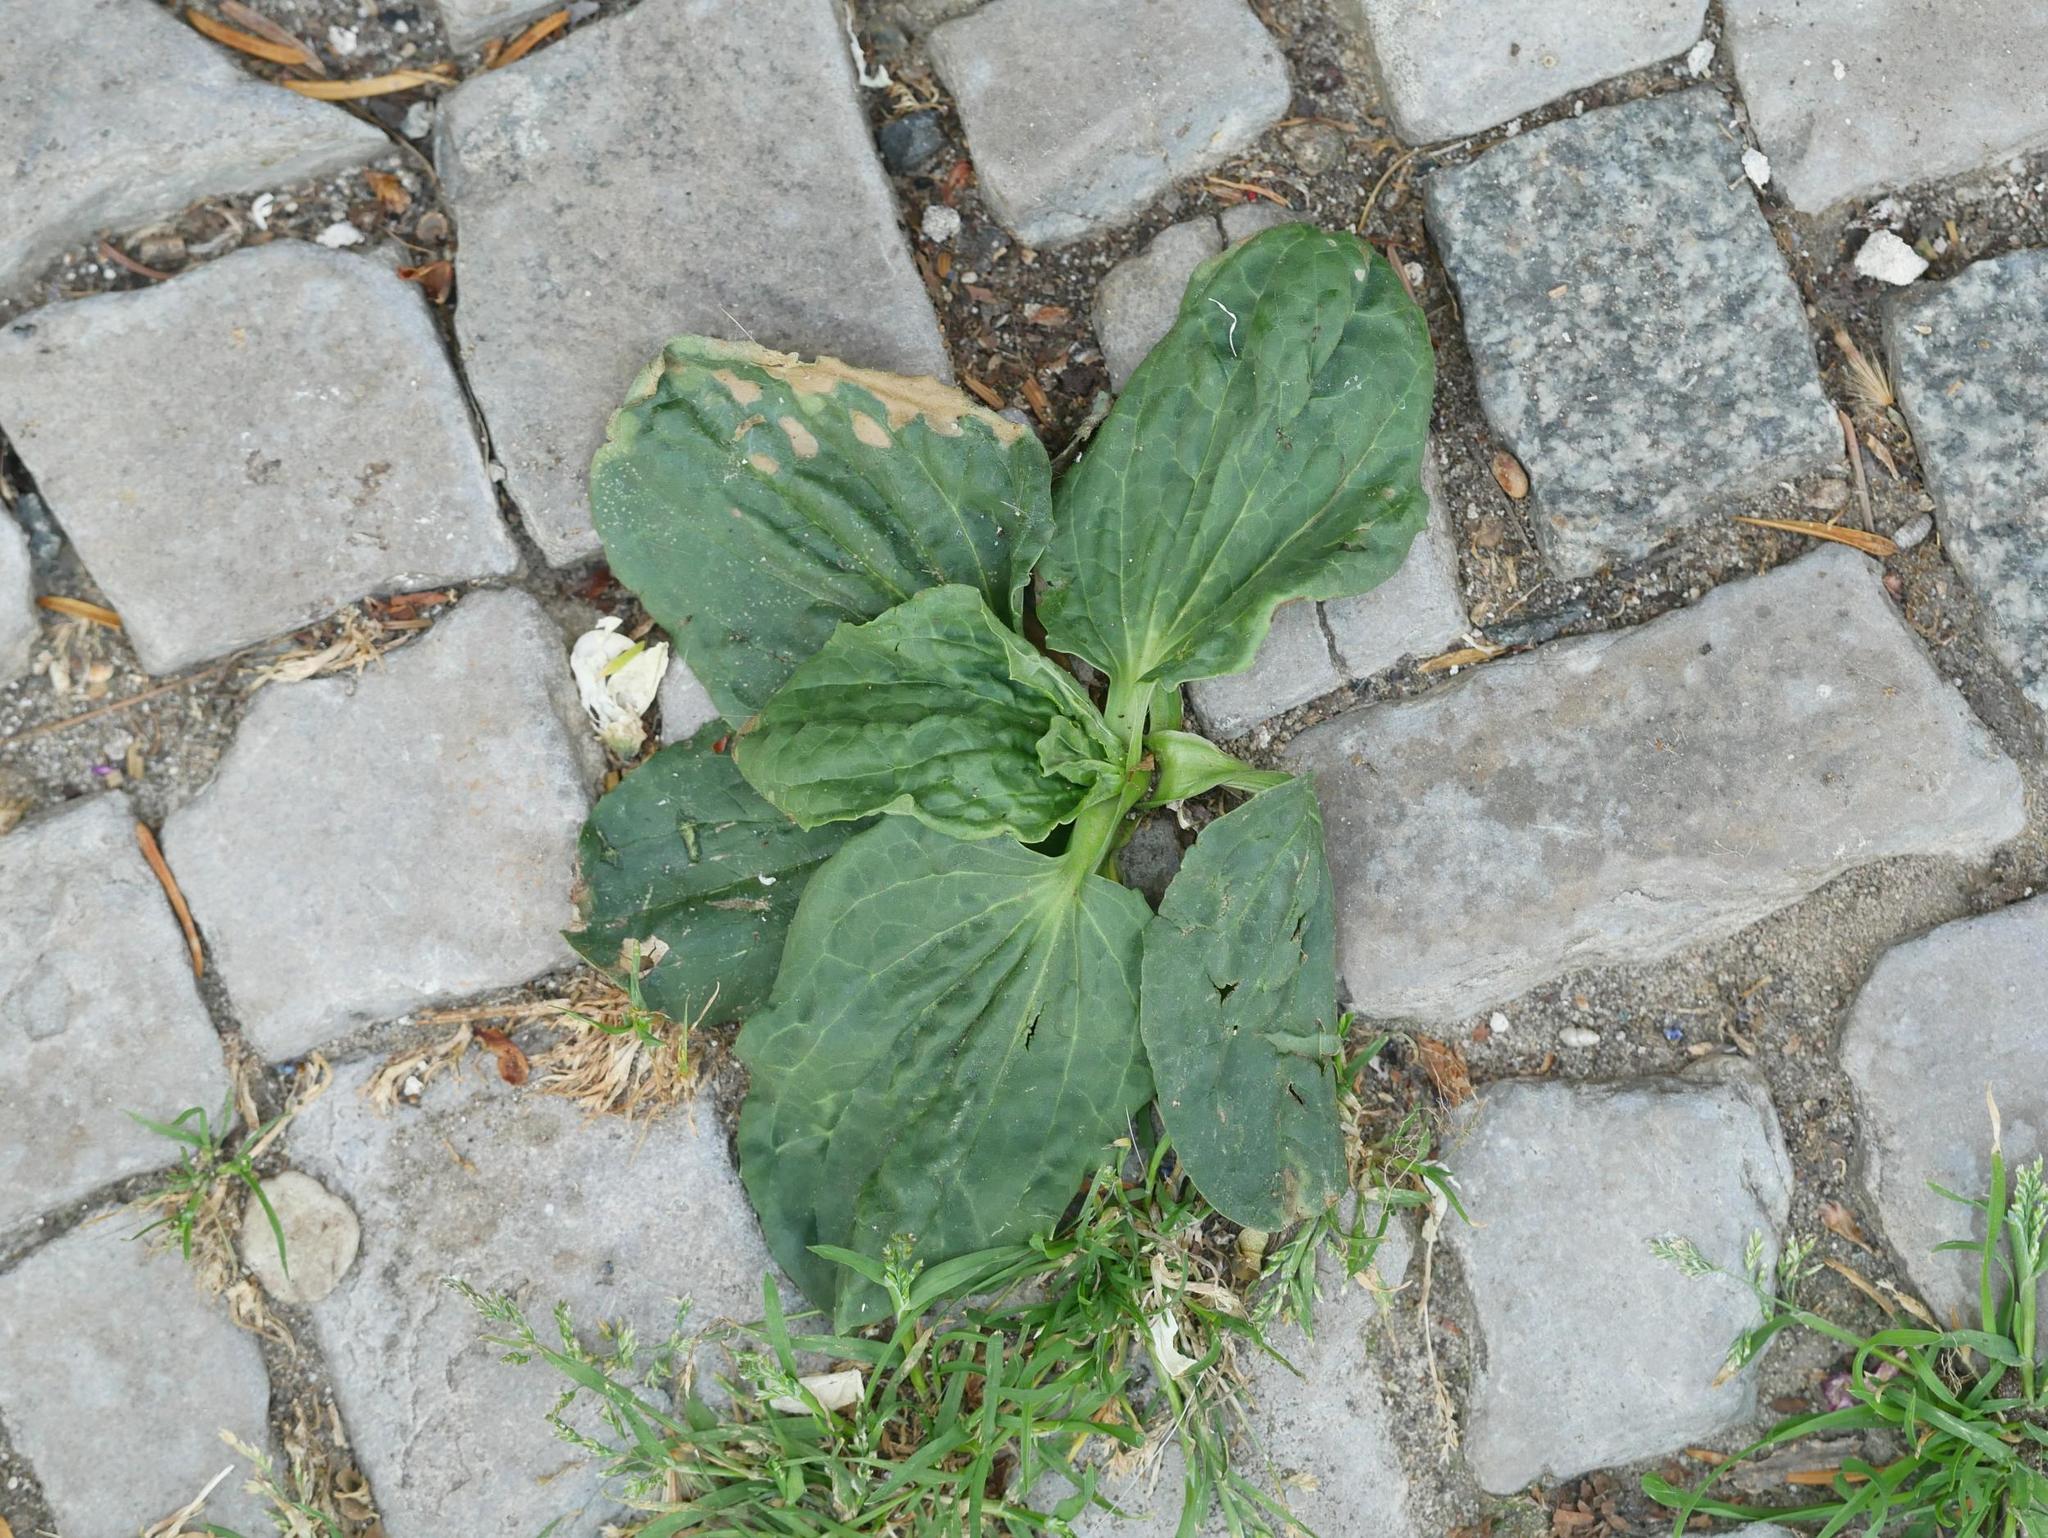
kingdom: Plantae
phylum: Tracheophyta
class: Magnoliopsida
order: Lamiales
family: Plantaginaceae
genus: Plantago
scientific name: Plantago major
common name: Common plantain
